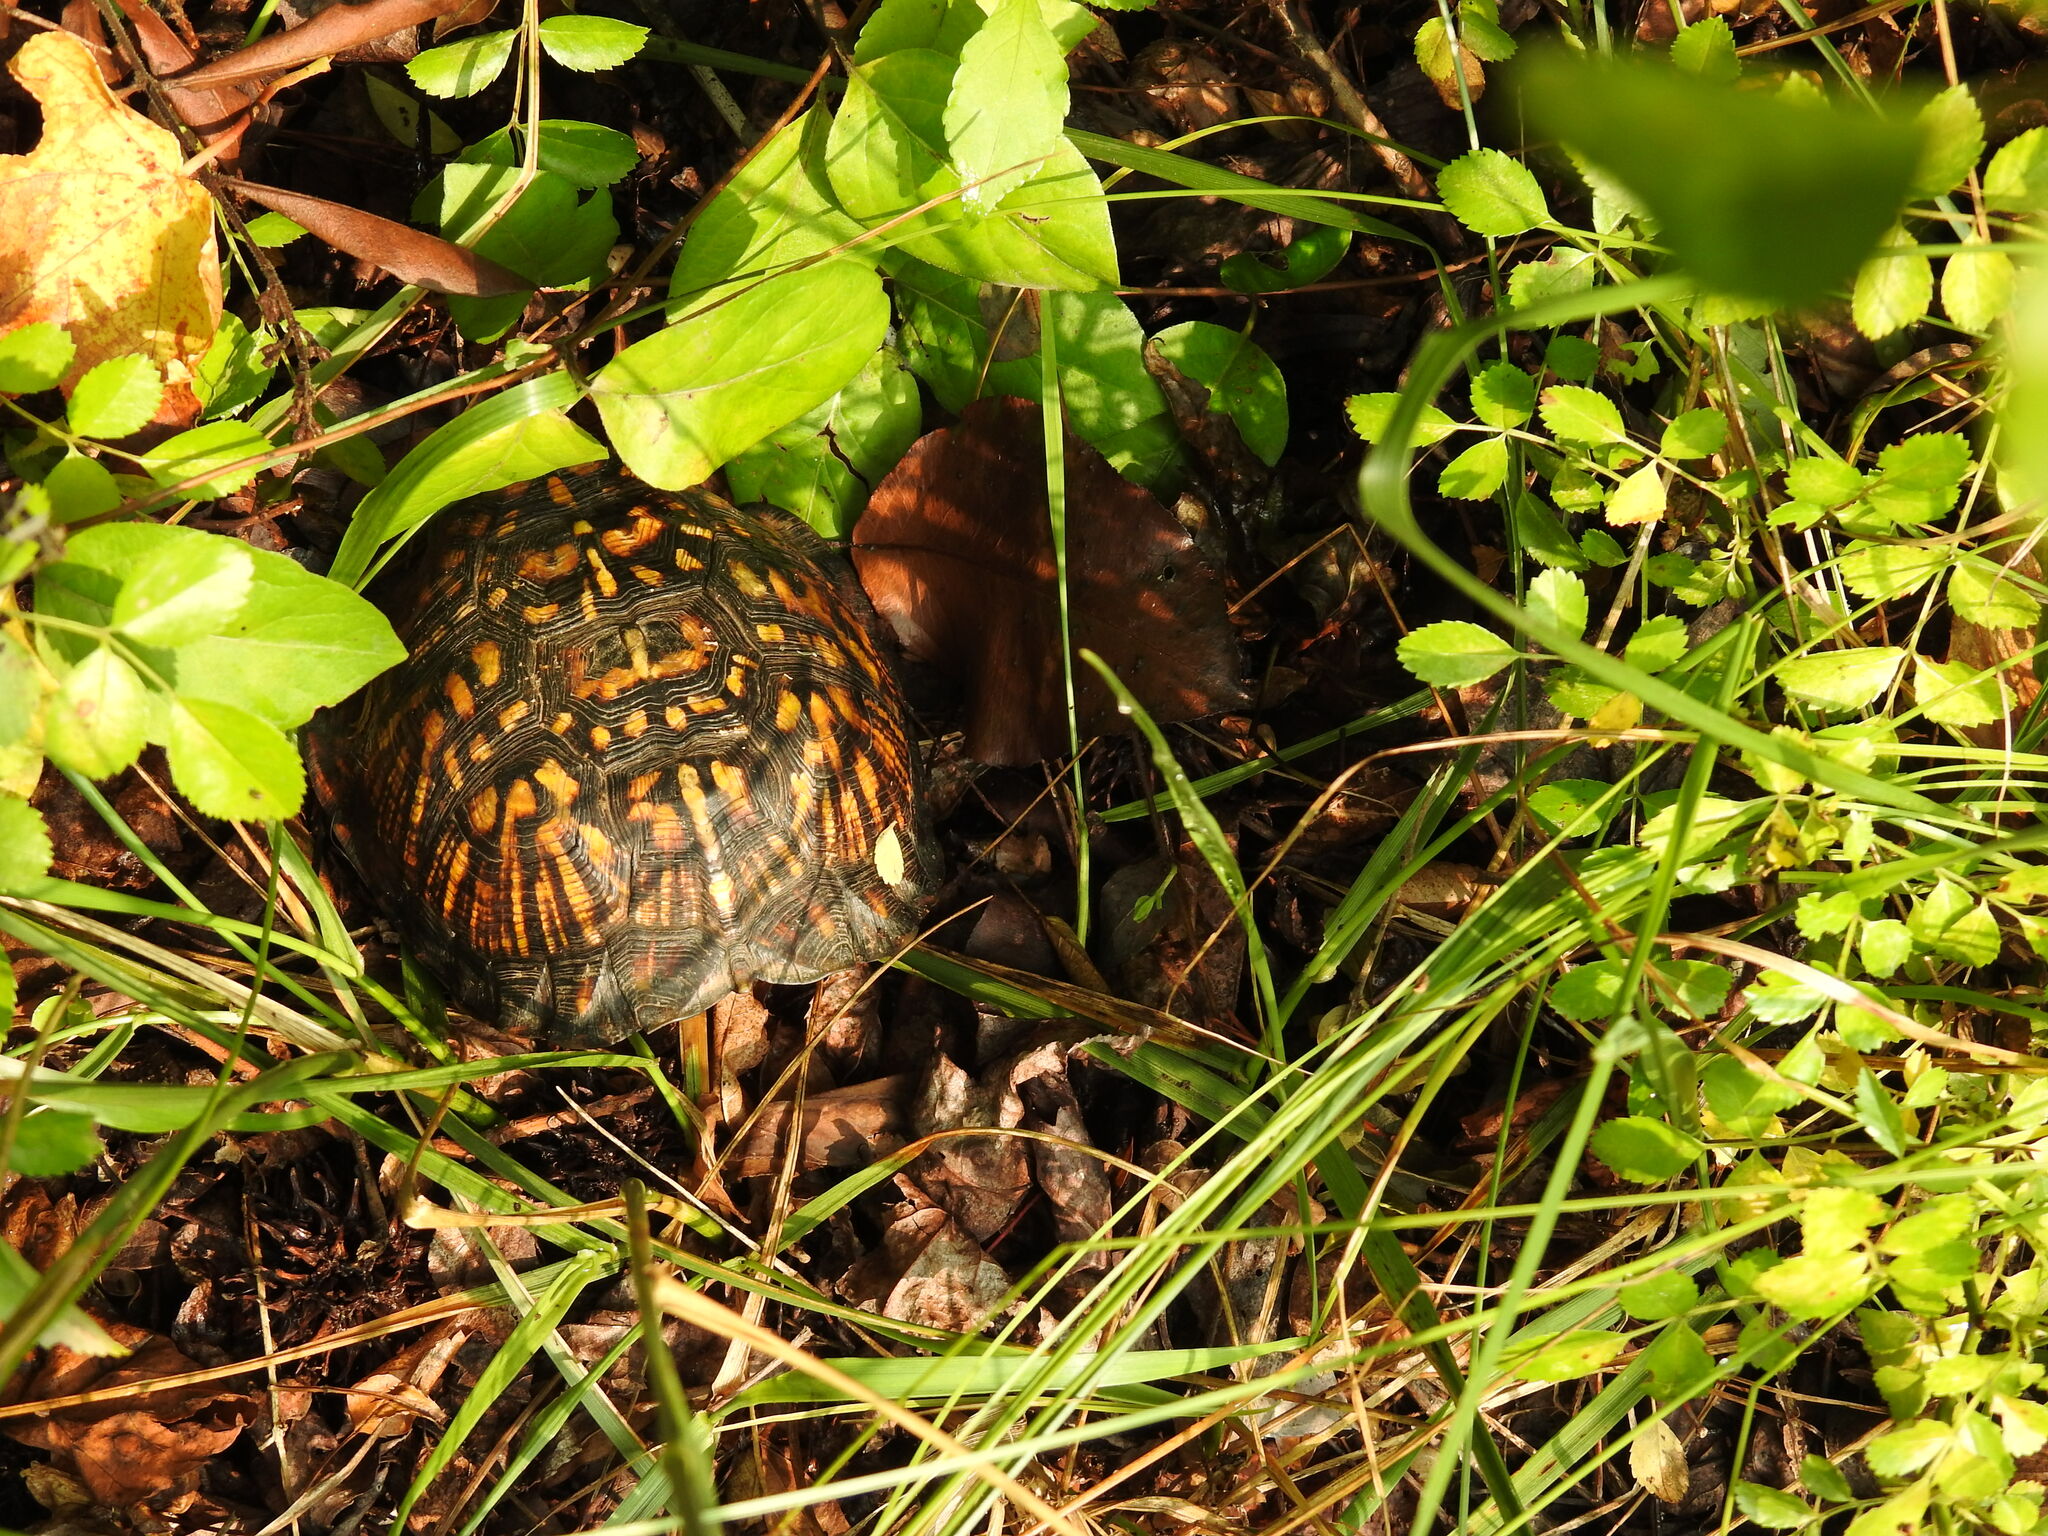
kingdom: Animalia
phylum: Chordata
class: Testudines
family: Emydidae
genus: Terrapene
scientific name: Terrapene carolina
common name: Common box turtle
